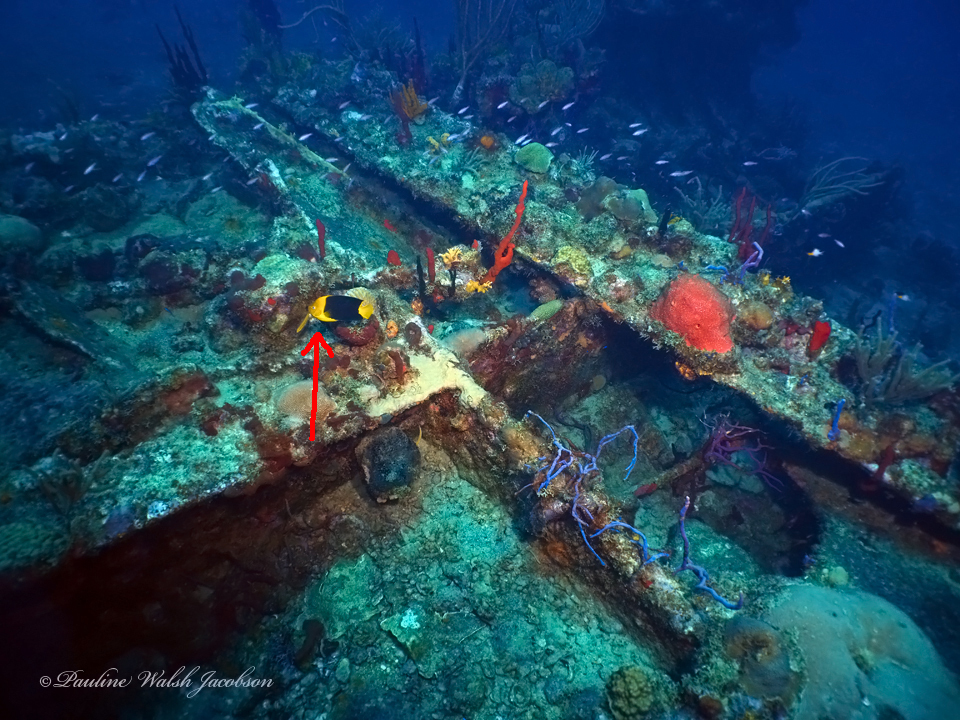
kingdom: Animalia
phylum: Chordata
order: Perciformes
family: Pomacanthidae
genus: Holacanthus
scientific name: Holacanthus tricolor
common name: Rock beauty
